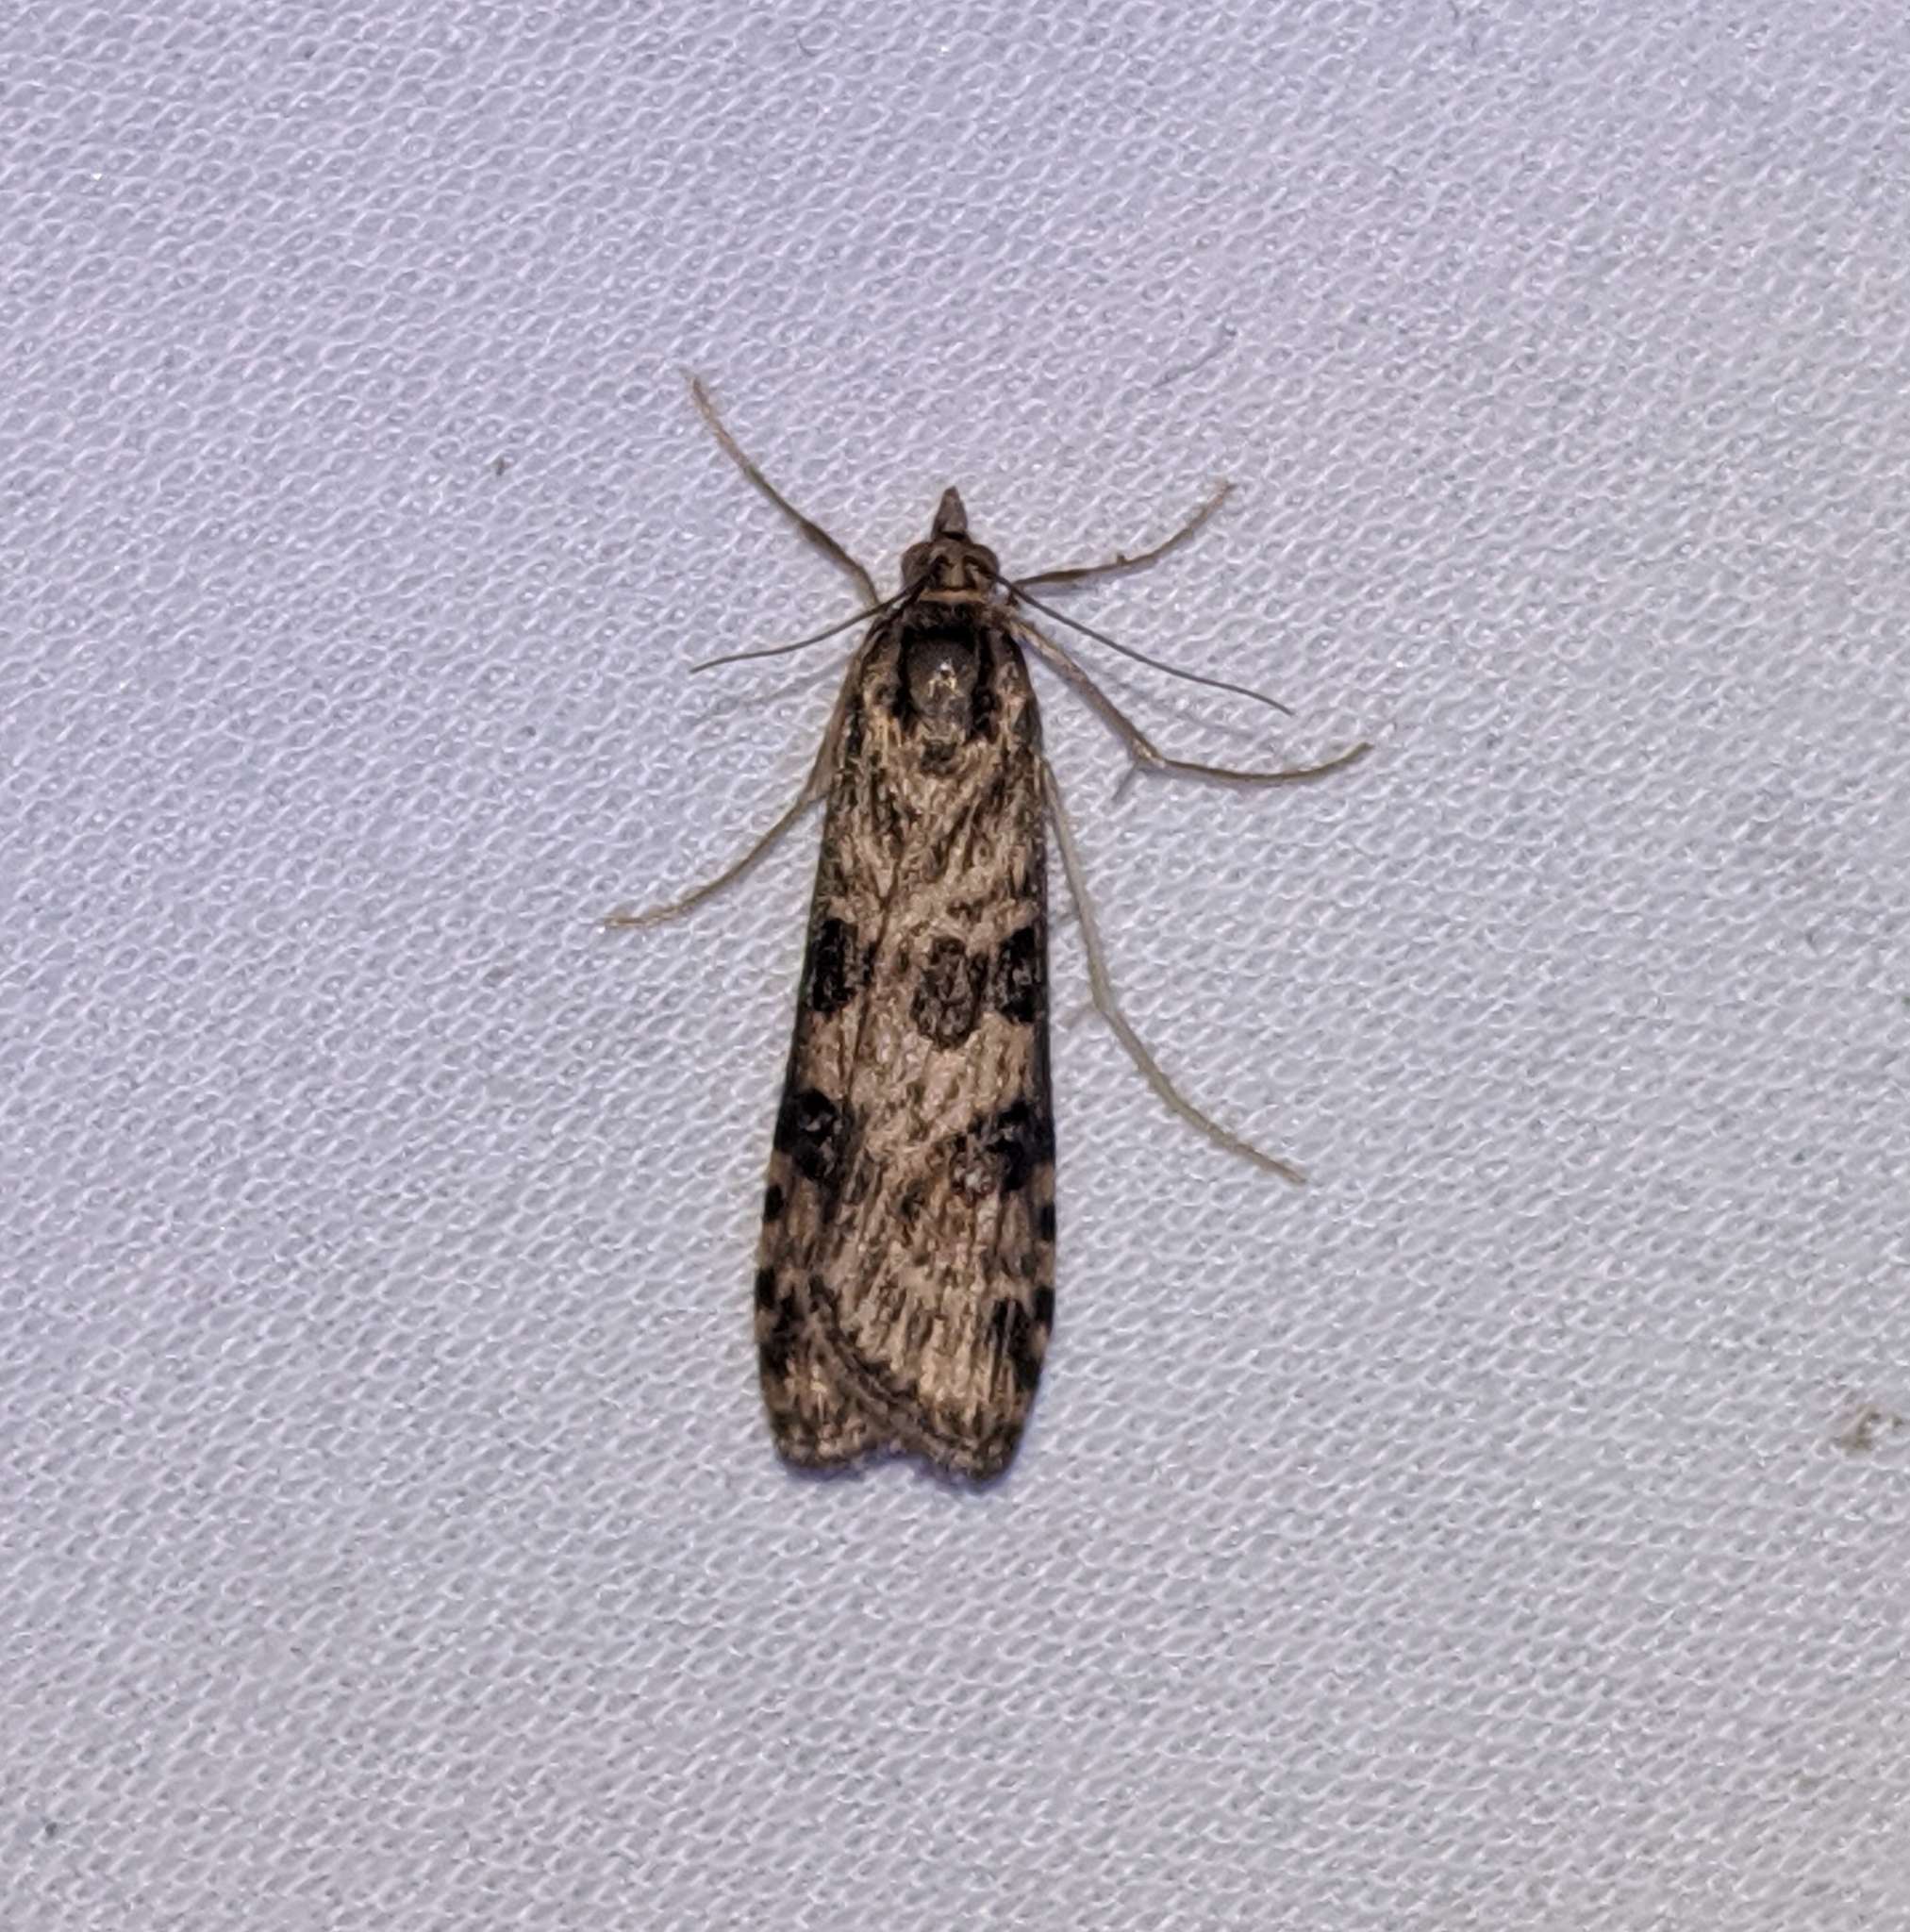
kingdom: Animalia
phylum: Arthropoda
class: Insecta
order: Lepidoptera
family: Crambidae
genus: Nomophila
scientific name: Nomophila nearctica
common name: American rush veneer
